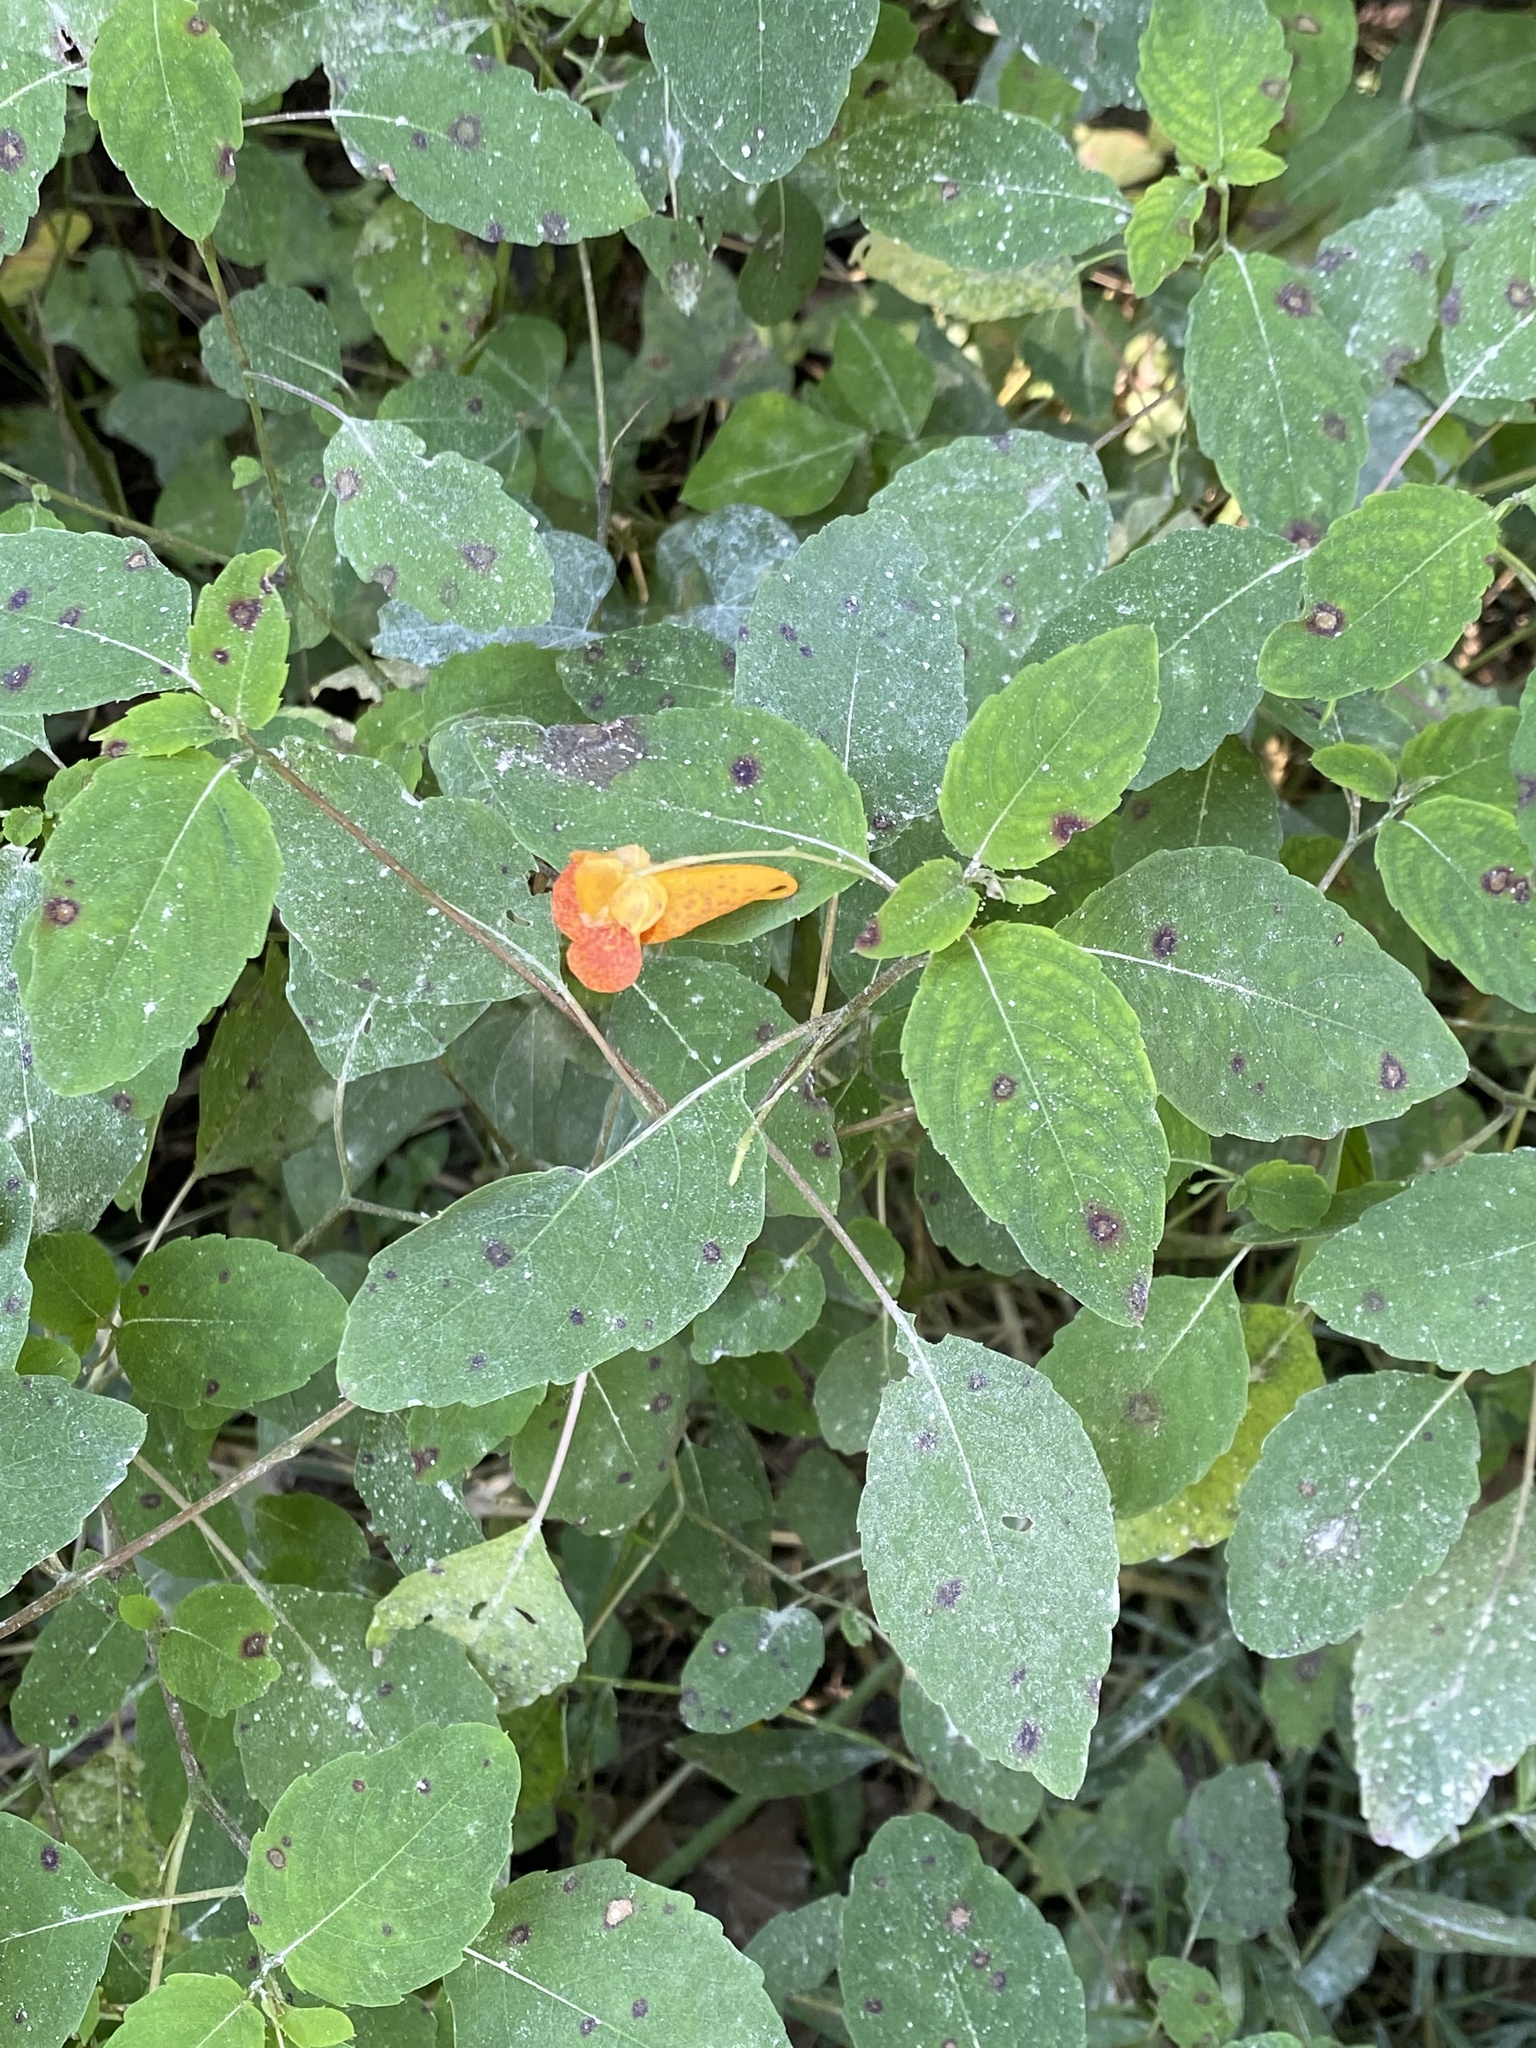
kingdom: Plantae
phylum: Tracheophyta
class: Magnoliopsida
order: Ericales
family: Balsaminaceae
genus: Impatiens
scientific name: Impatiens capensis
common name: Orange balsam
